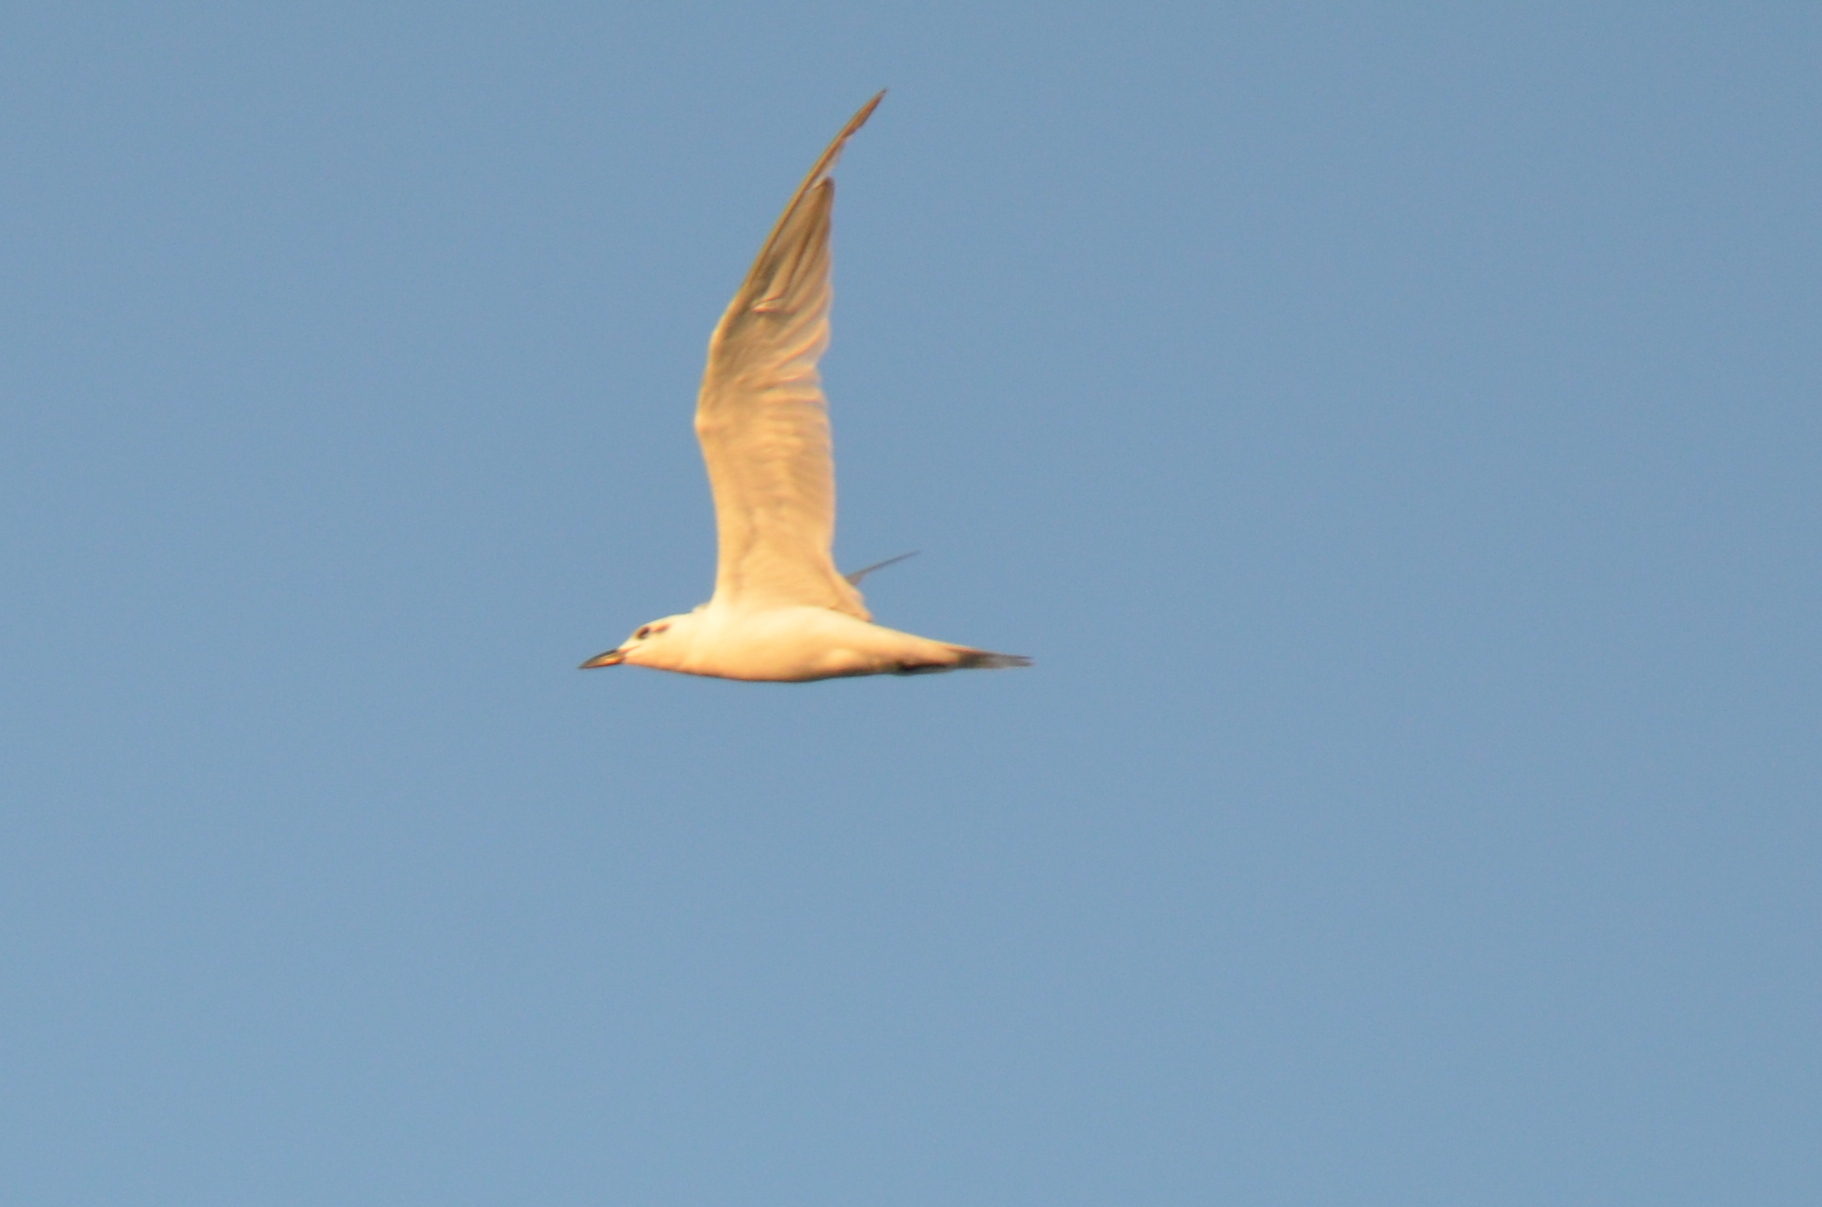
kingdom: Animalia
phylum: Chordata
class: Aves
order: Charadriiformes
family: Laridae
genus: Gelochelidon
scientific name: Gelochelidon nilotica
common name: Gull-billed tern
